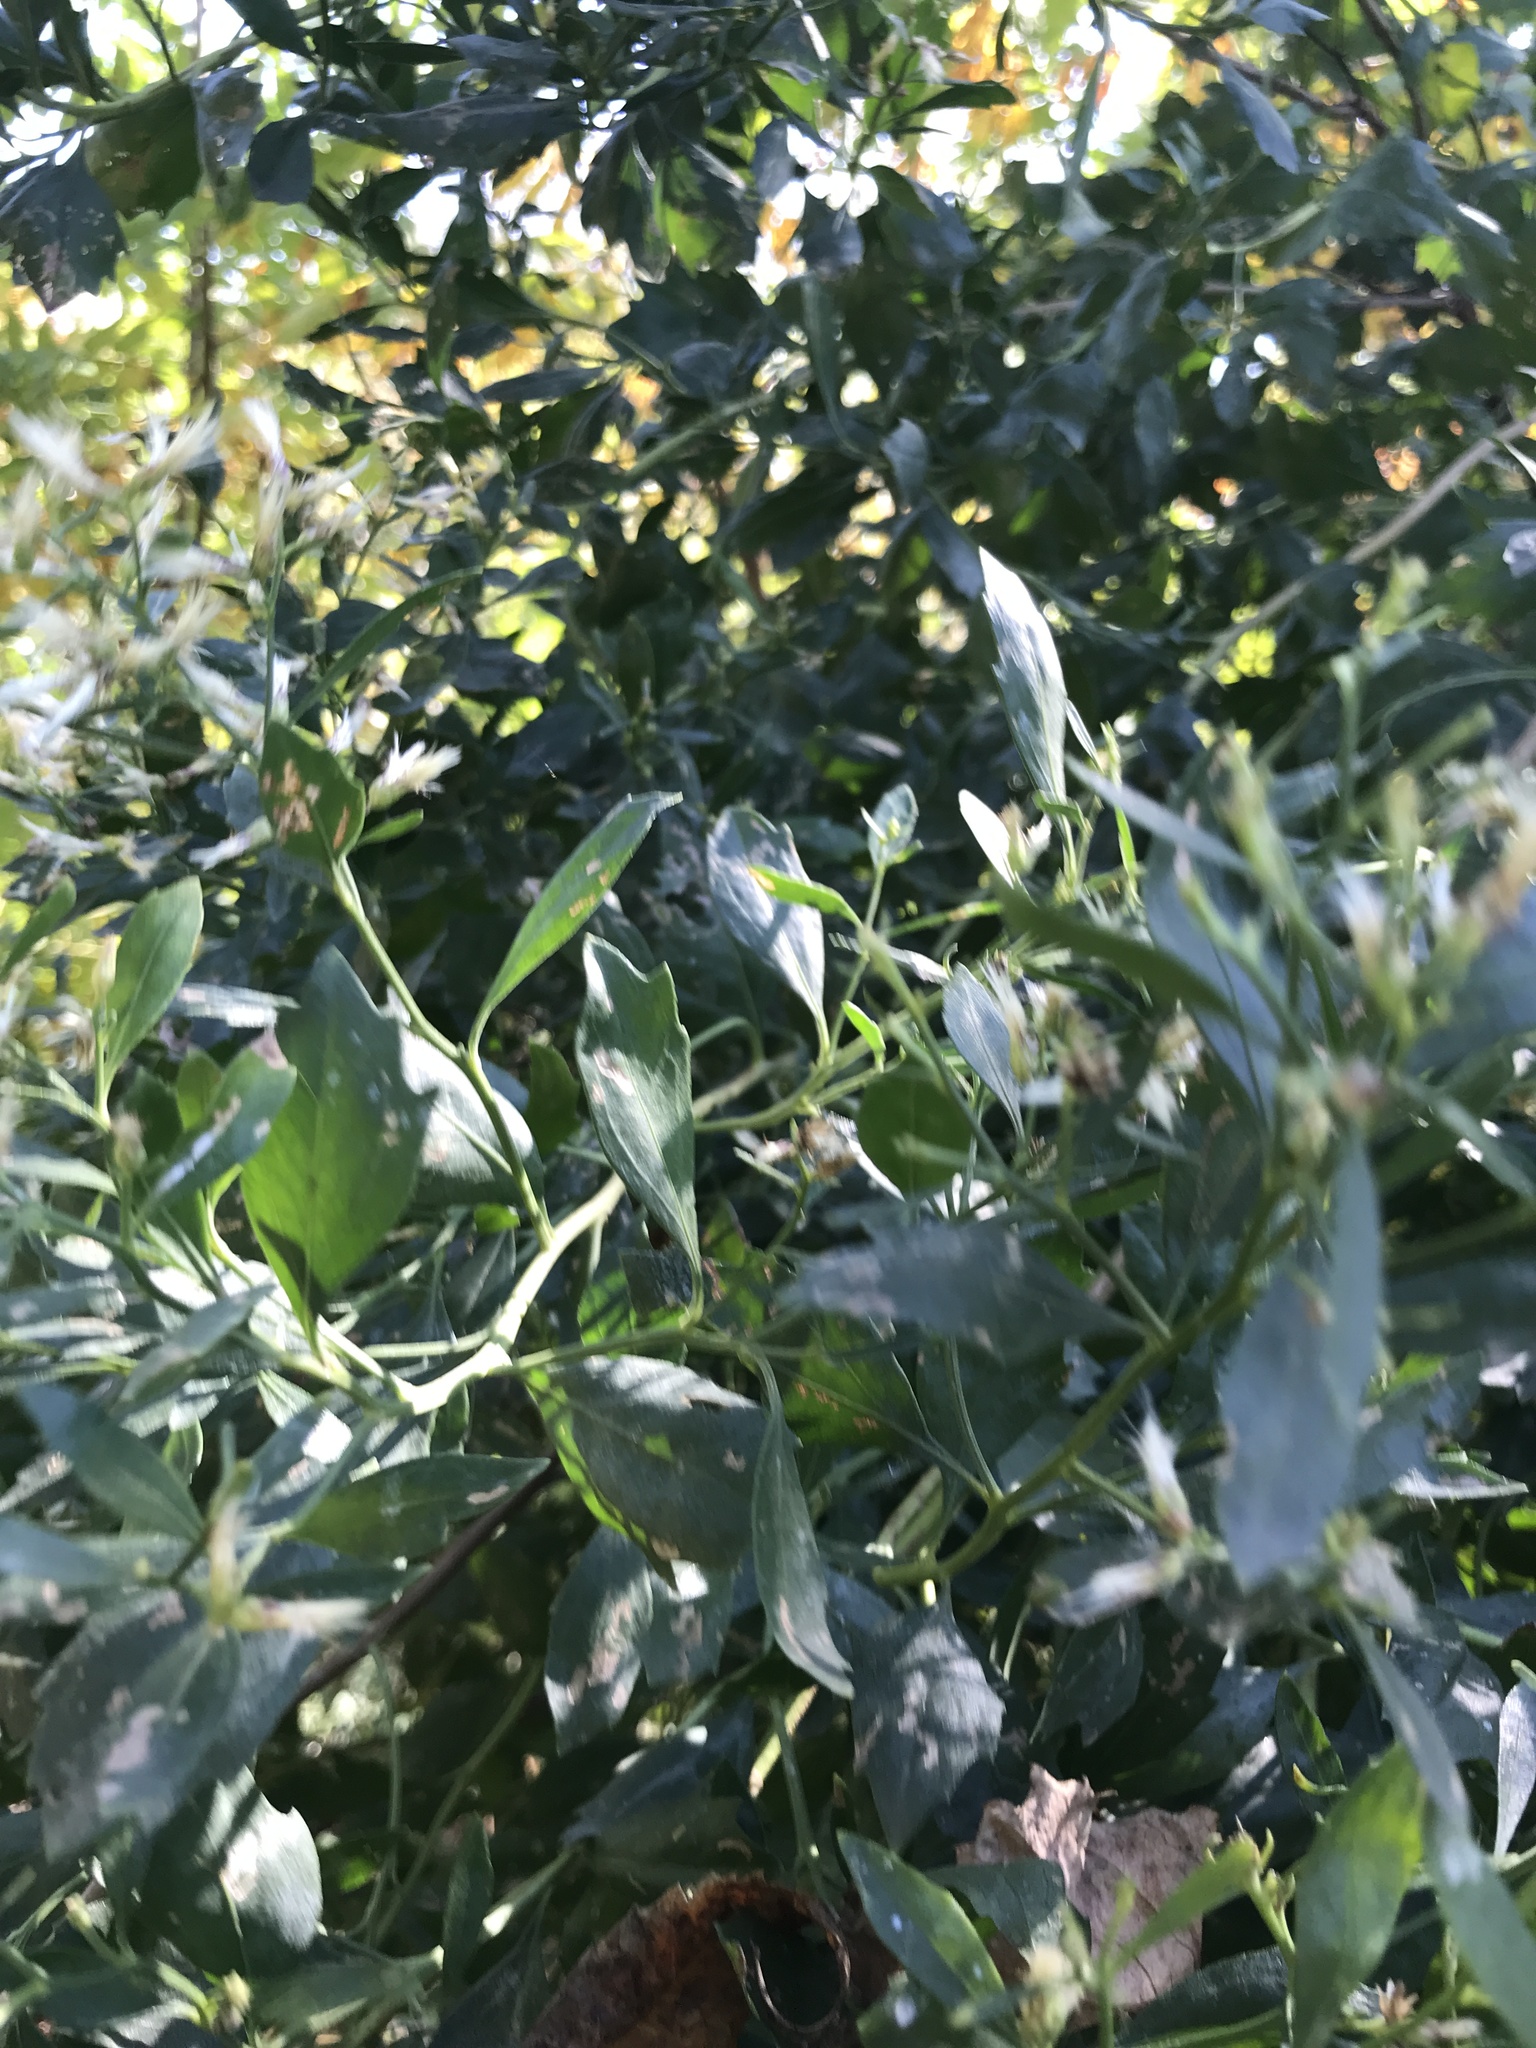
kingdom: Plantae
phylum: Tracheophyta
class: Magnoliopsida
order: Asterales
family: Asteraceae
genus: Baccharis
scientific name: Baccharis halimifolia
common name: Eastern baccharis
